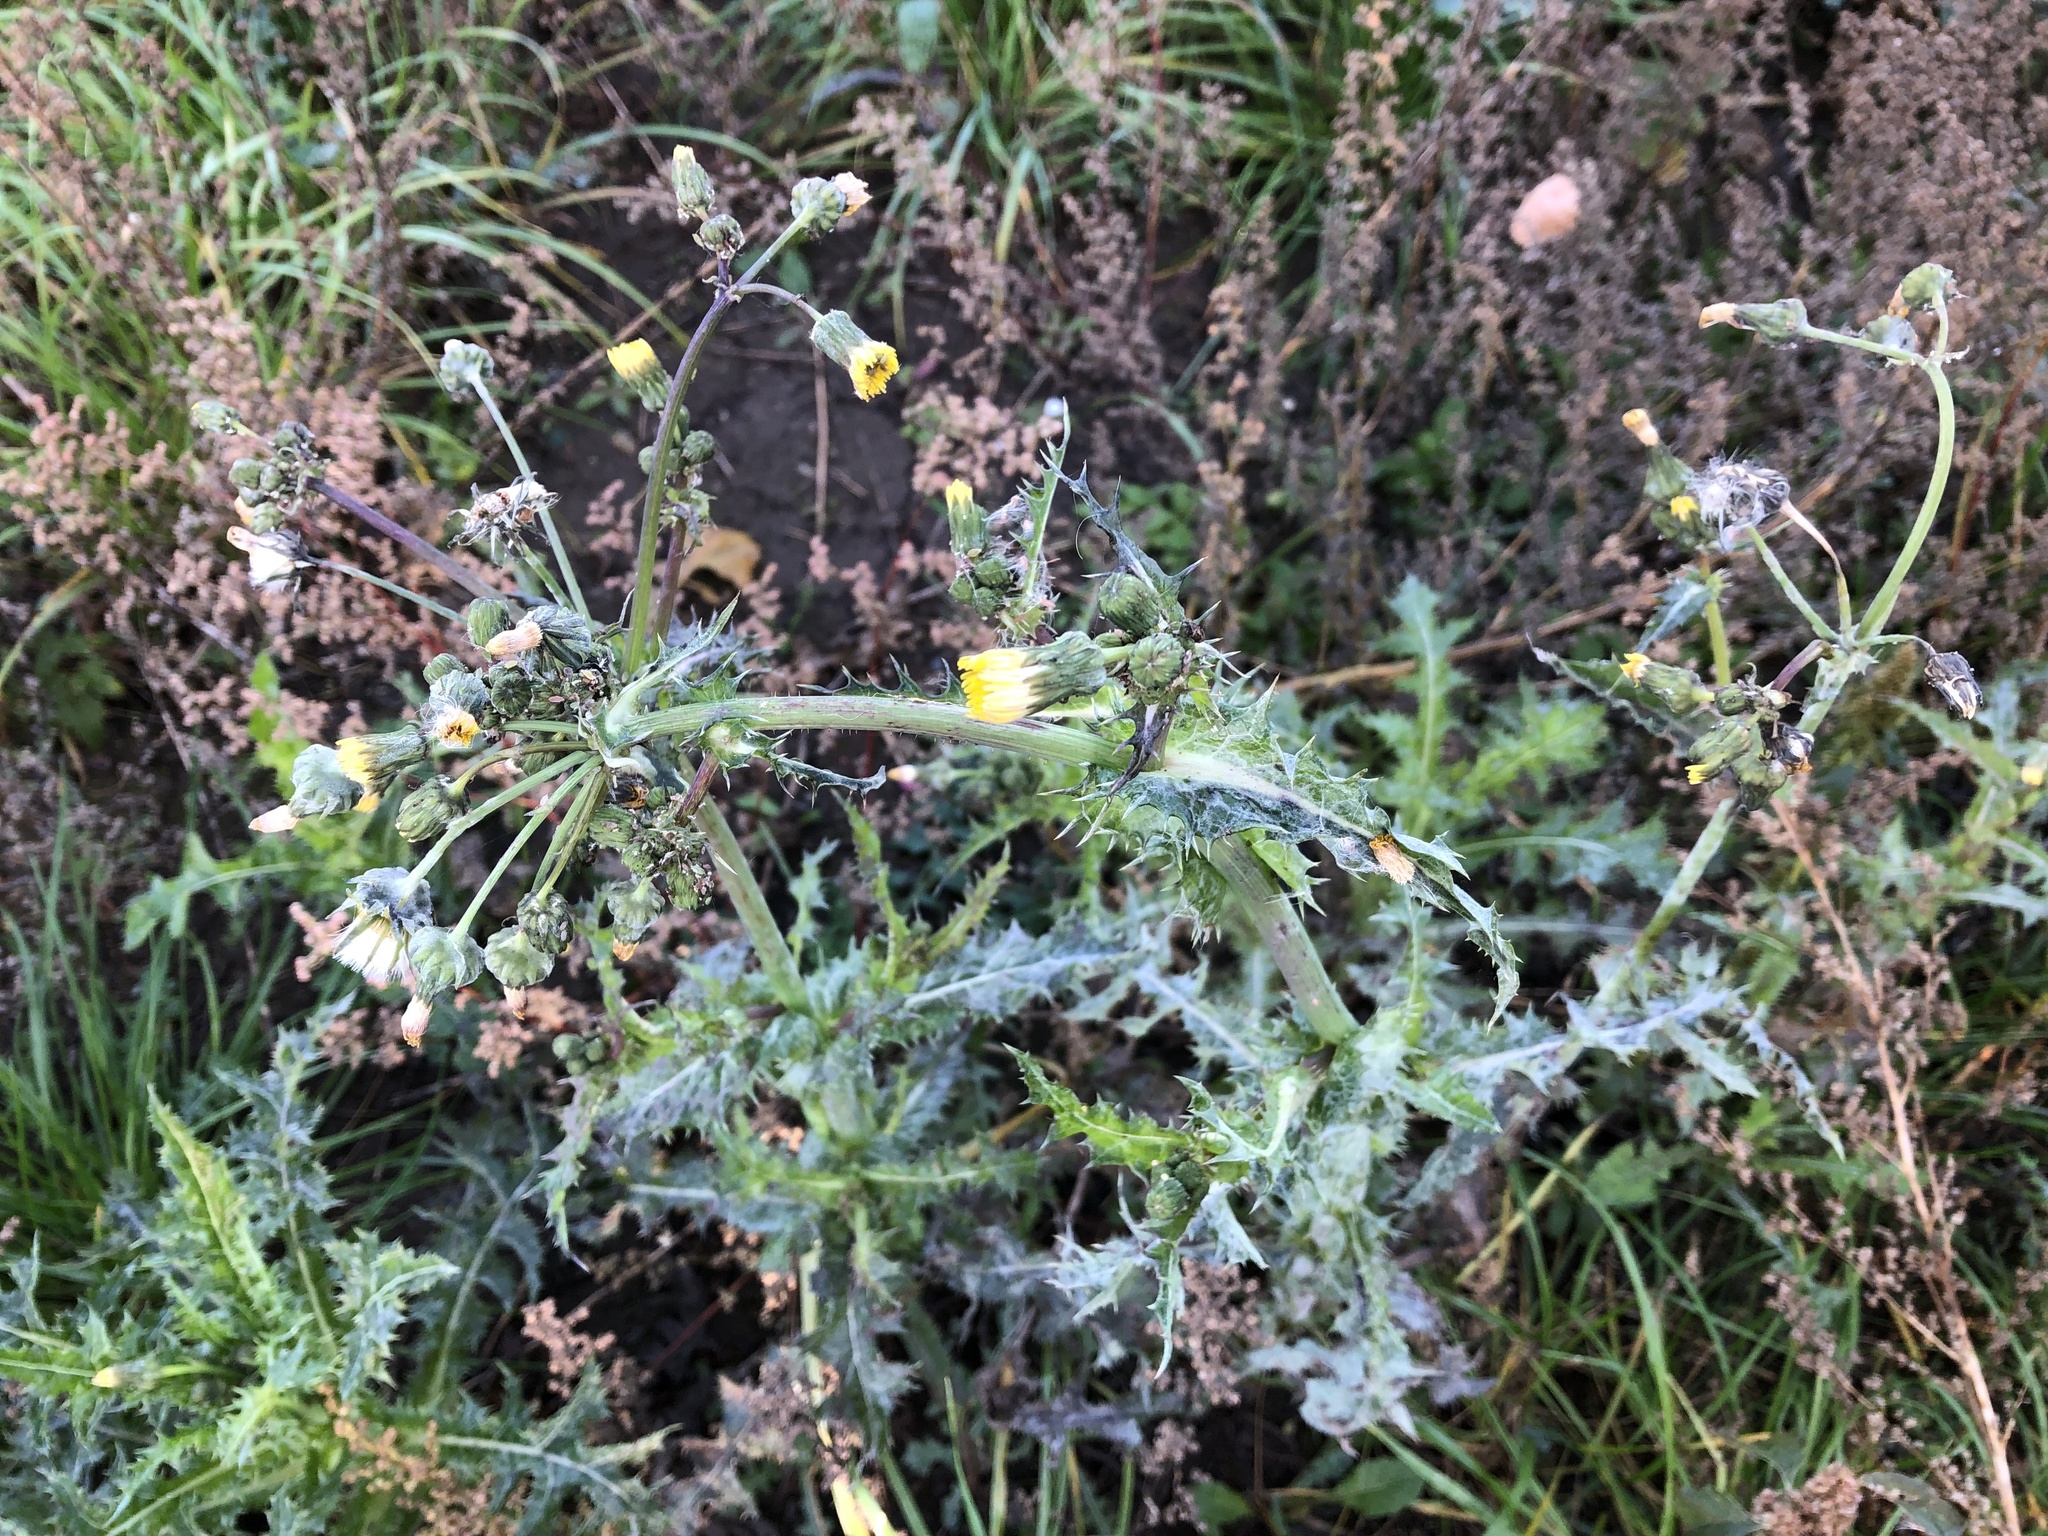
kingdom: Plantae
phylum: Tracheophyta
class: Magnoliopsida
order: Asterales
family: Asteraceae
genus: Sonchus
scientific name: Sonchus asper
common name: Prickly sow-thistle
